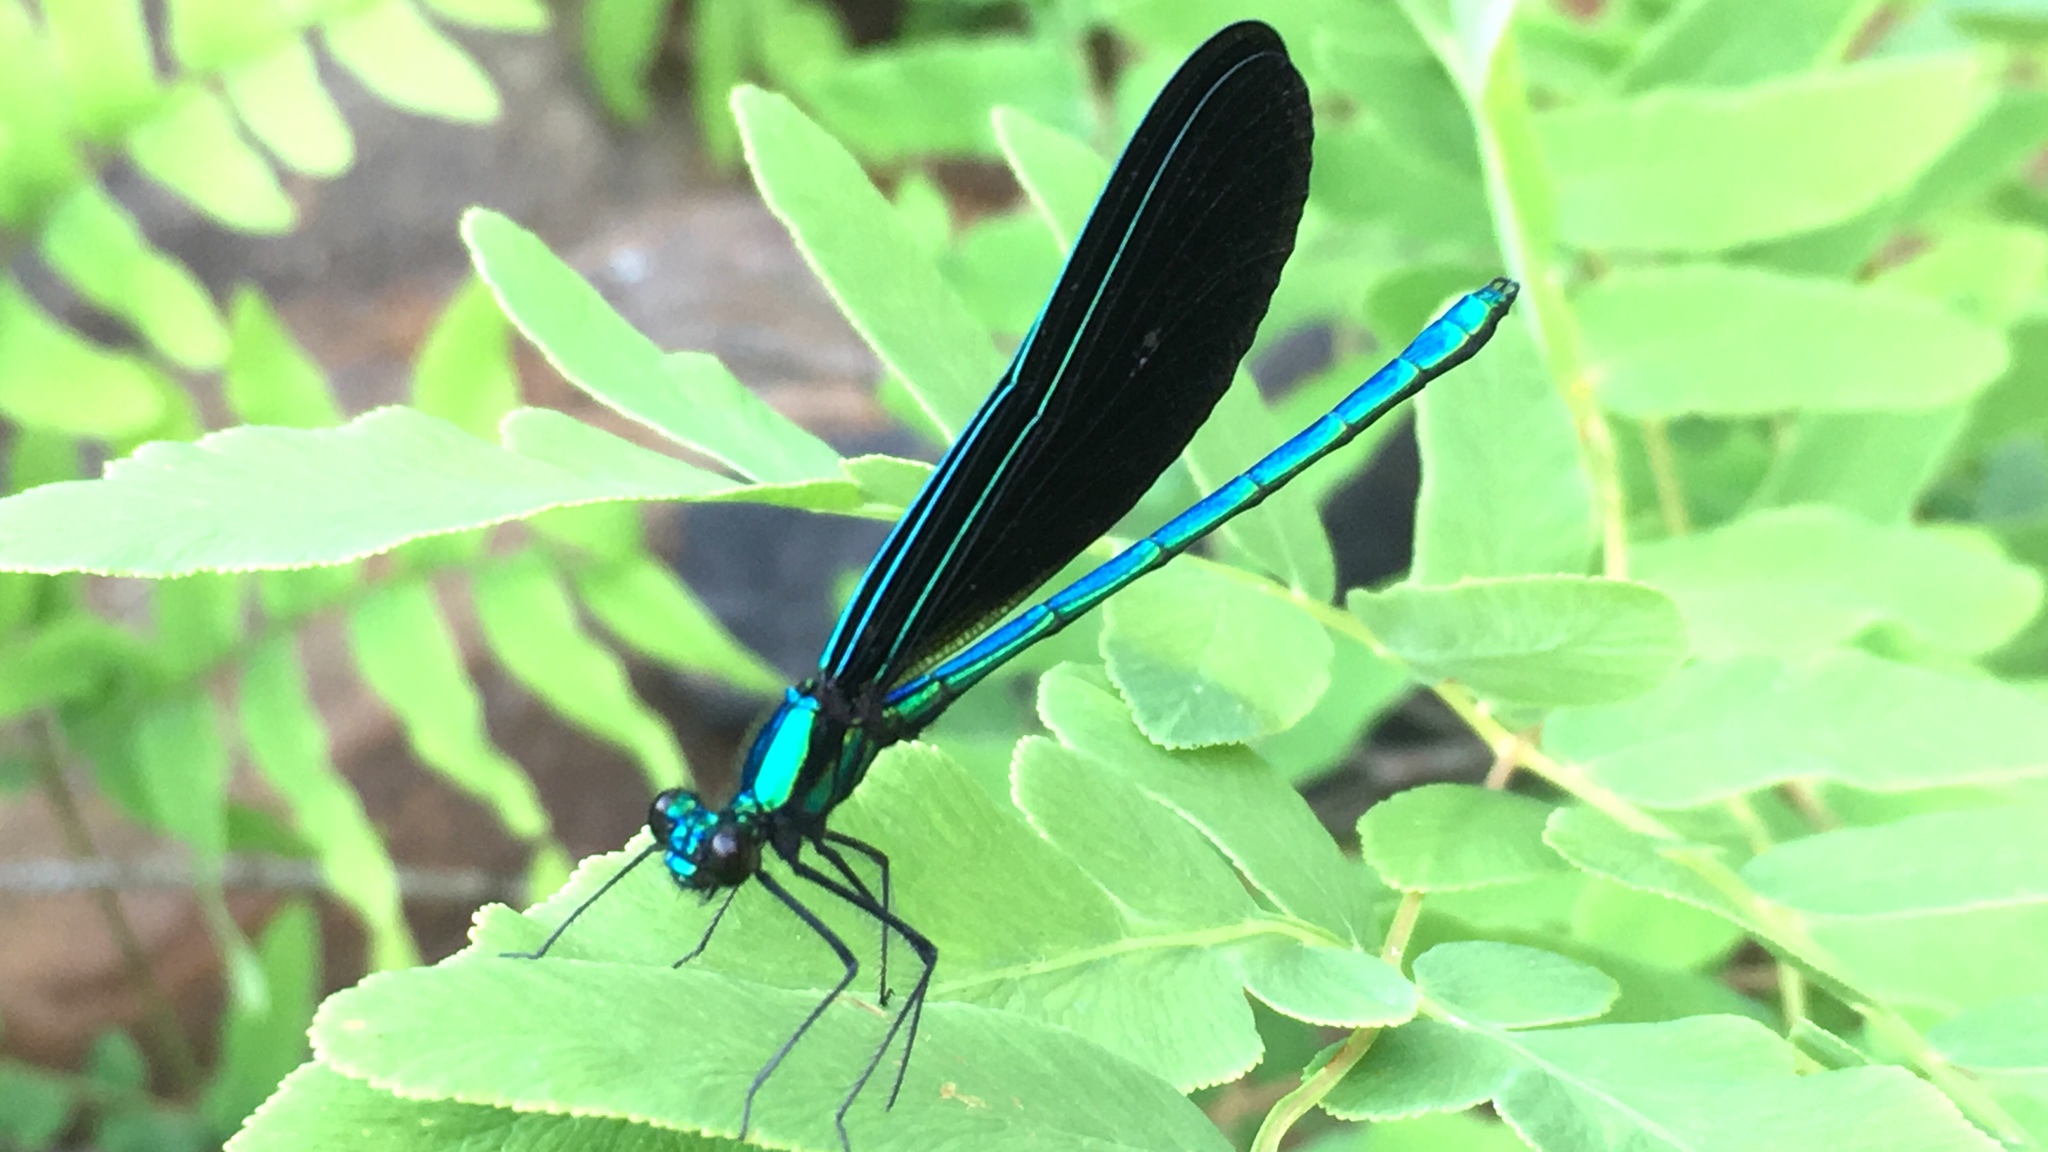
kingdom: Animalia
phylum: Arthropoda
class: Insecta
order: Odonata
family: Calopterygidae
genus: Calopteryx
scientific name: Calopteryx maculata
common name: Ebony jewelwing
